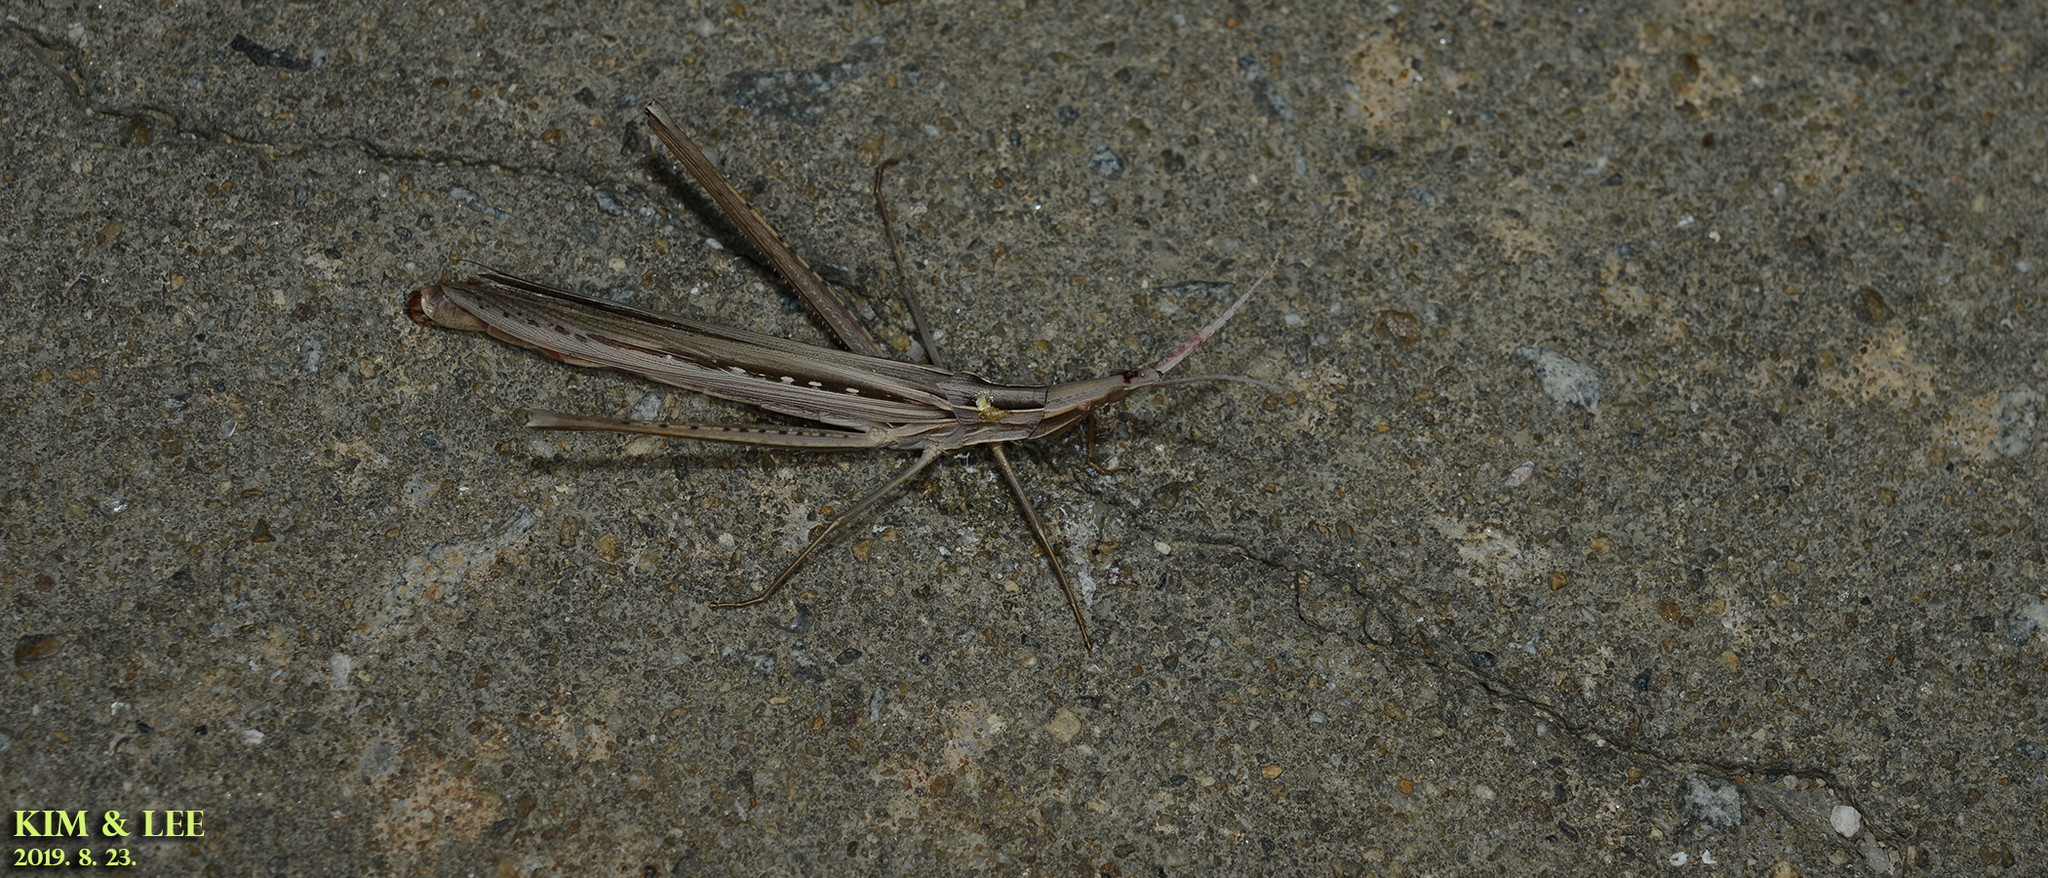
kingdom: Animalia
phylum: Arthropoda
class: Insecta
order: Orthoptera
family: Acrididae
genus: Acrida
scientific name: Acrida cinerea
